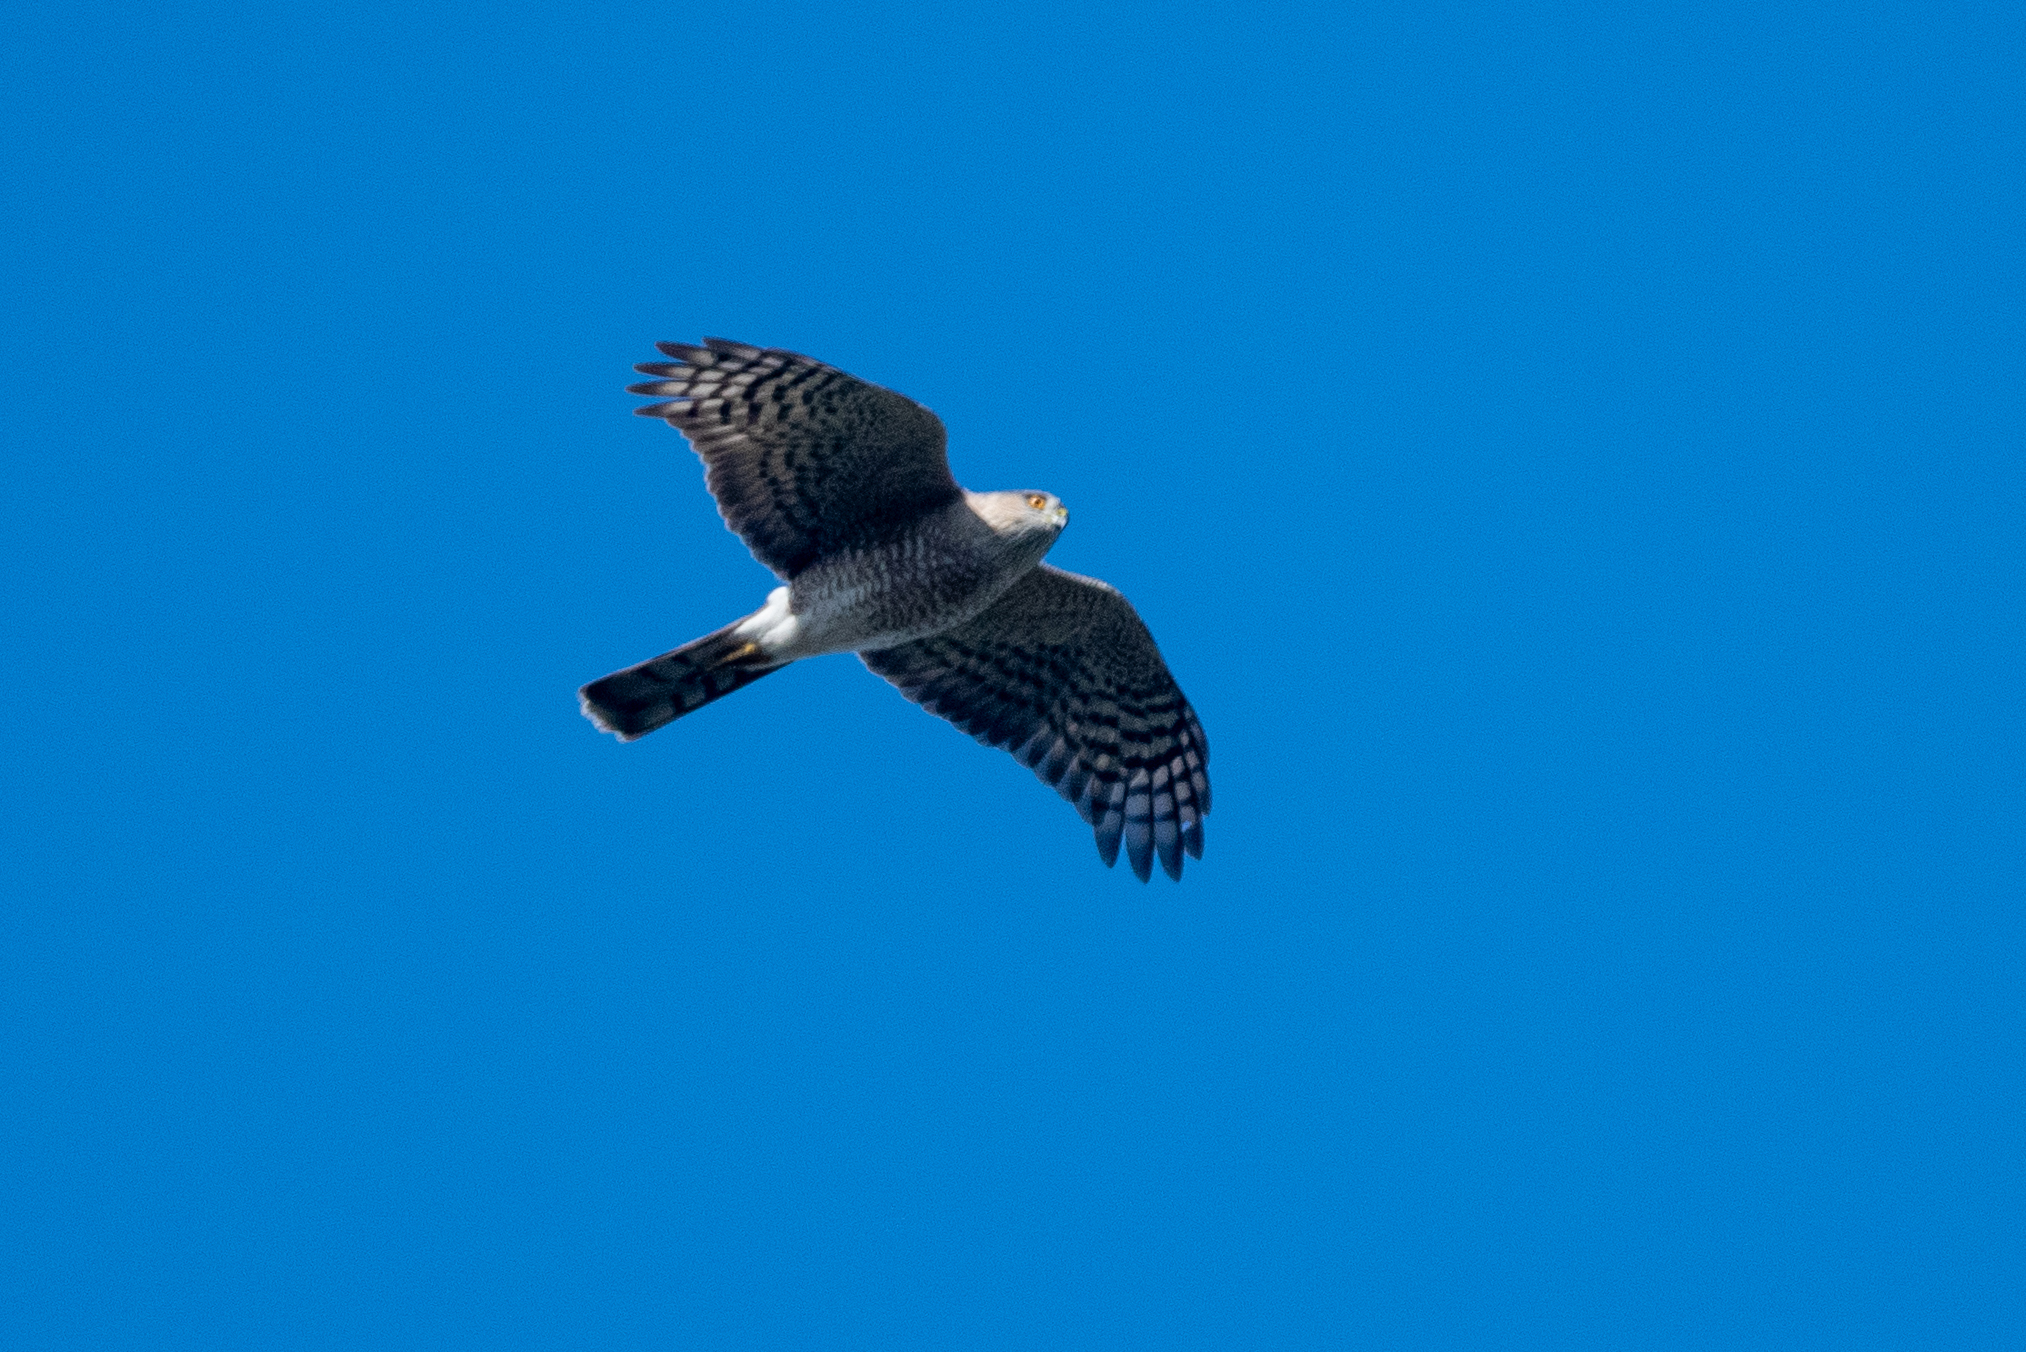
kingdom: Animalia
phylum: Chordata
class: Aves
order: Accipitriformes
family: Accipitridae
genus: Accipiter
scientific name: Accipiter striatus
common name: Sharp-shinned hawk
